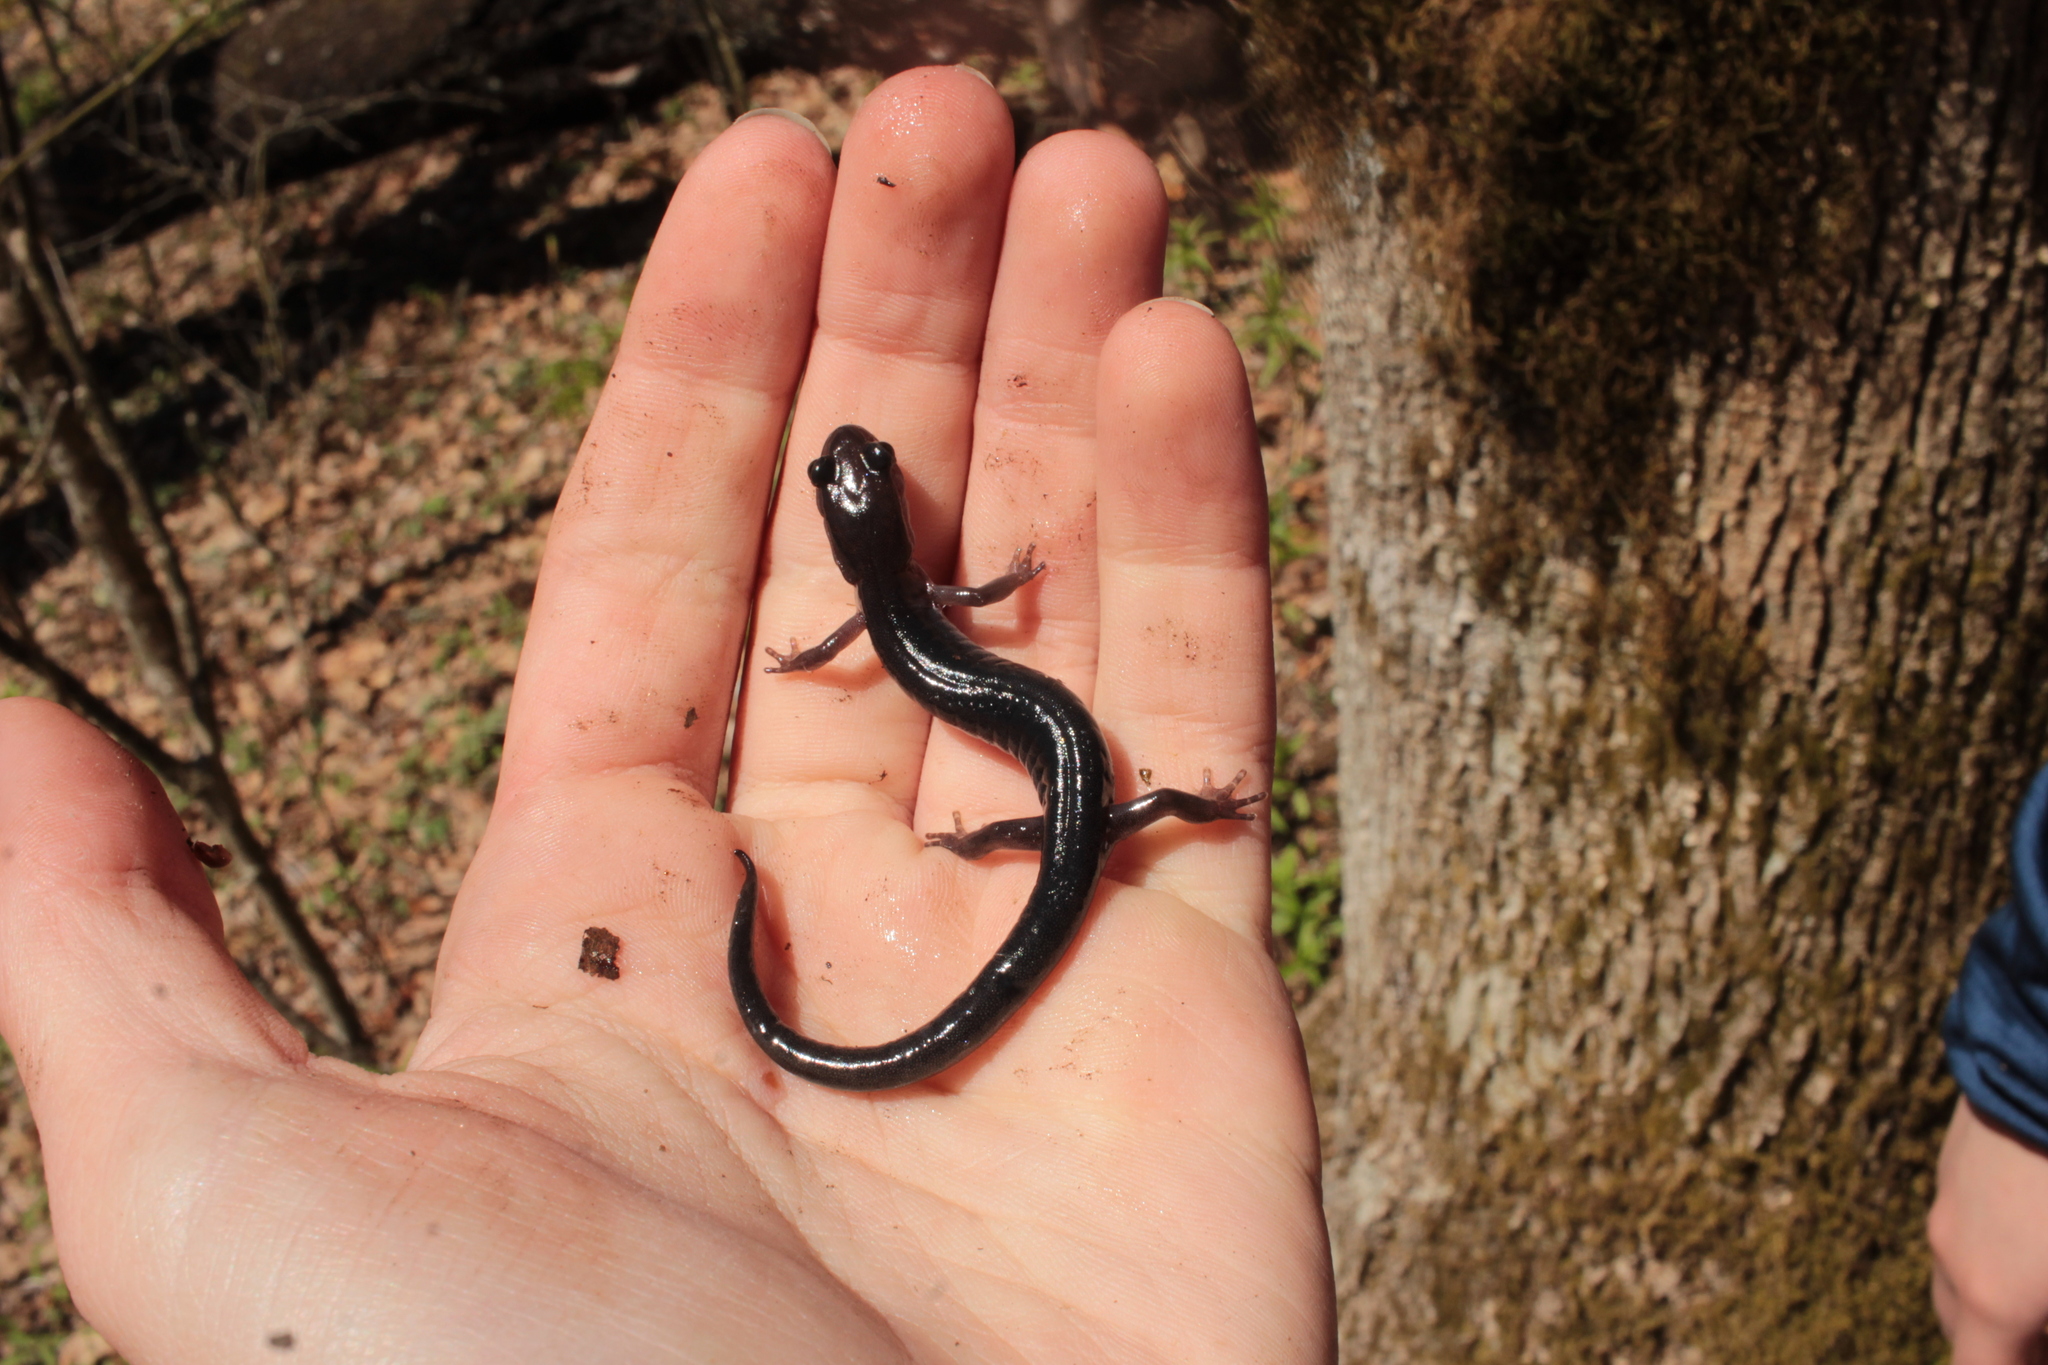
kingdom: Animalia
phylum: Chordata
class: Amphibia
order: Caudata
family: Plethodontidae
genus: Plethodon
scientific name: Plethodon metcalfi
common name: Southern gray-cheeked salamander
